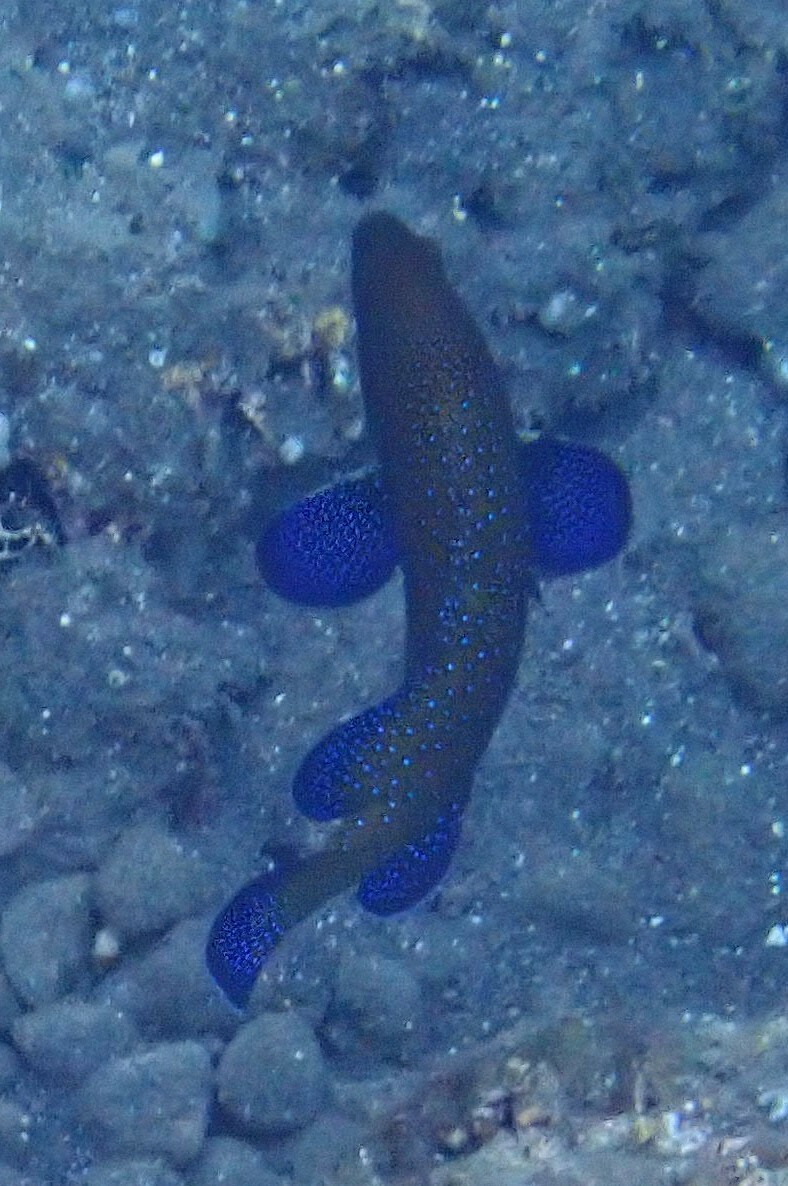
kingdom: Animalia
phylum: Chordata
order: Perciformes
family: Serranidae
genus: Cephalopholis
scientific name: Cephalopholis argus
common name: Peacock grouper
